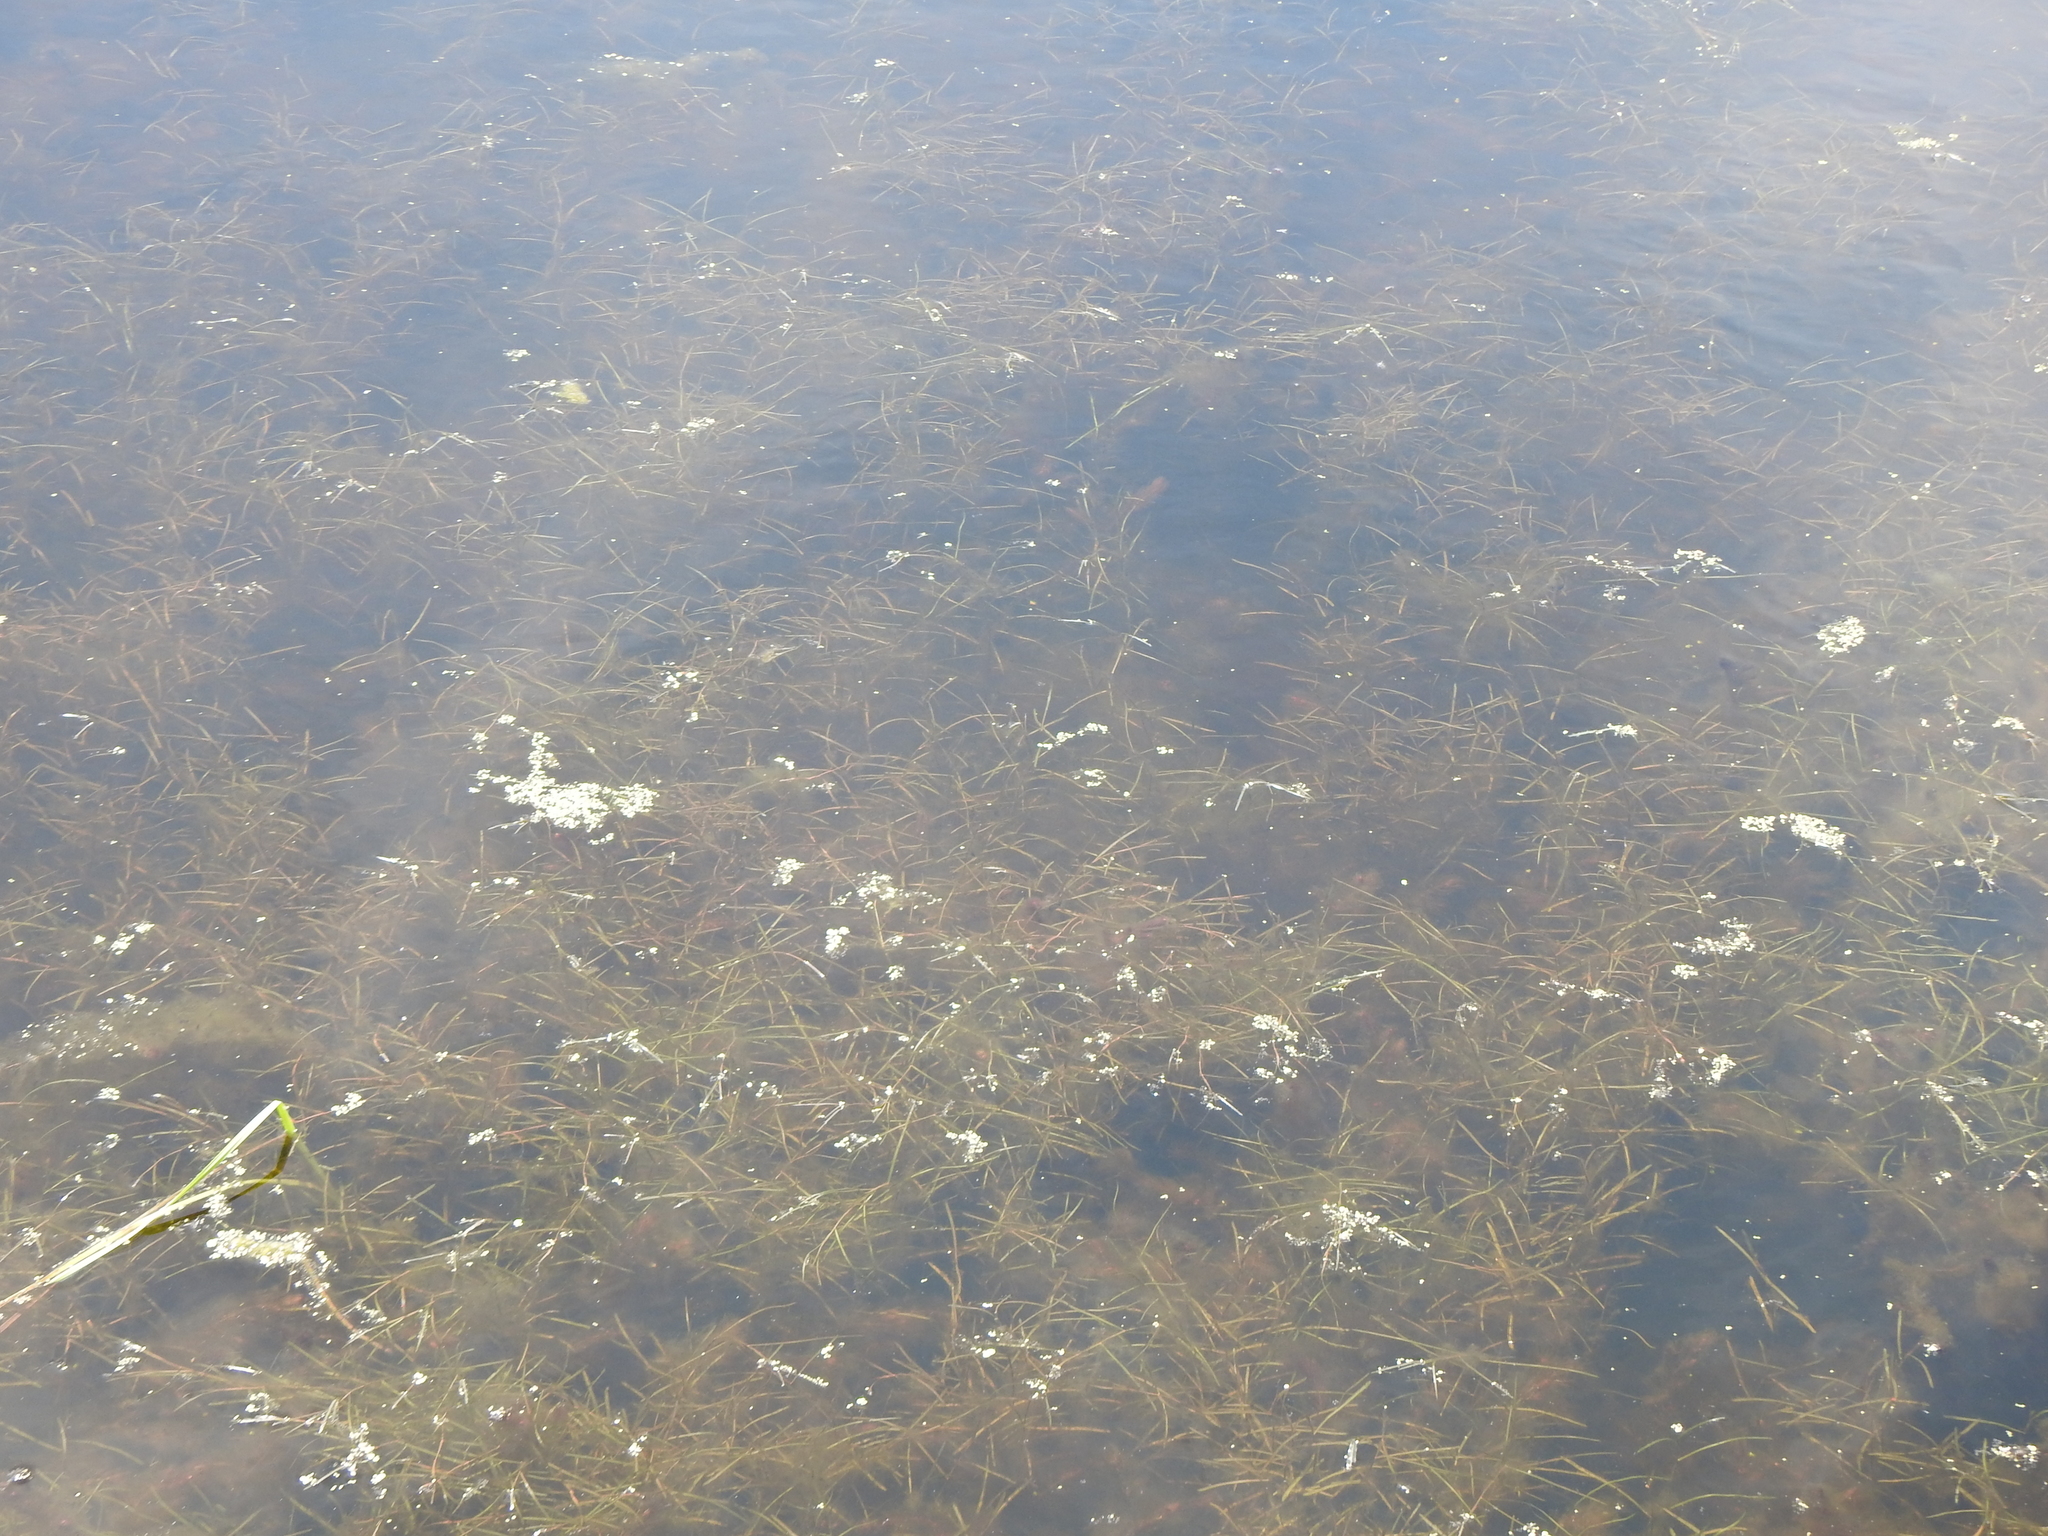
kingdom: Plantae
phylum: Tracheophyta
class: Liliopsida
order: Alismatales
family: Potamogetonaceae
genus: Potamogeton
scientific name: Potamogeton
